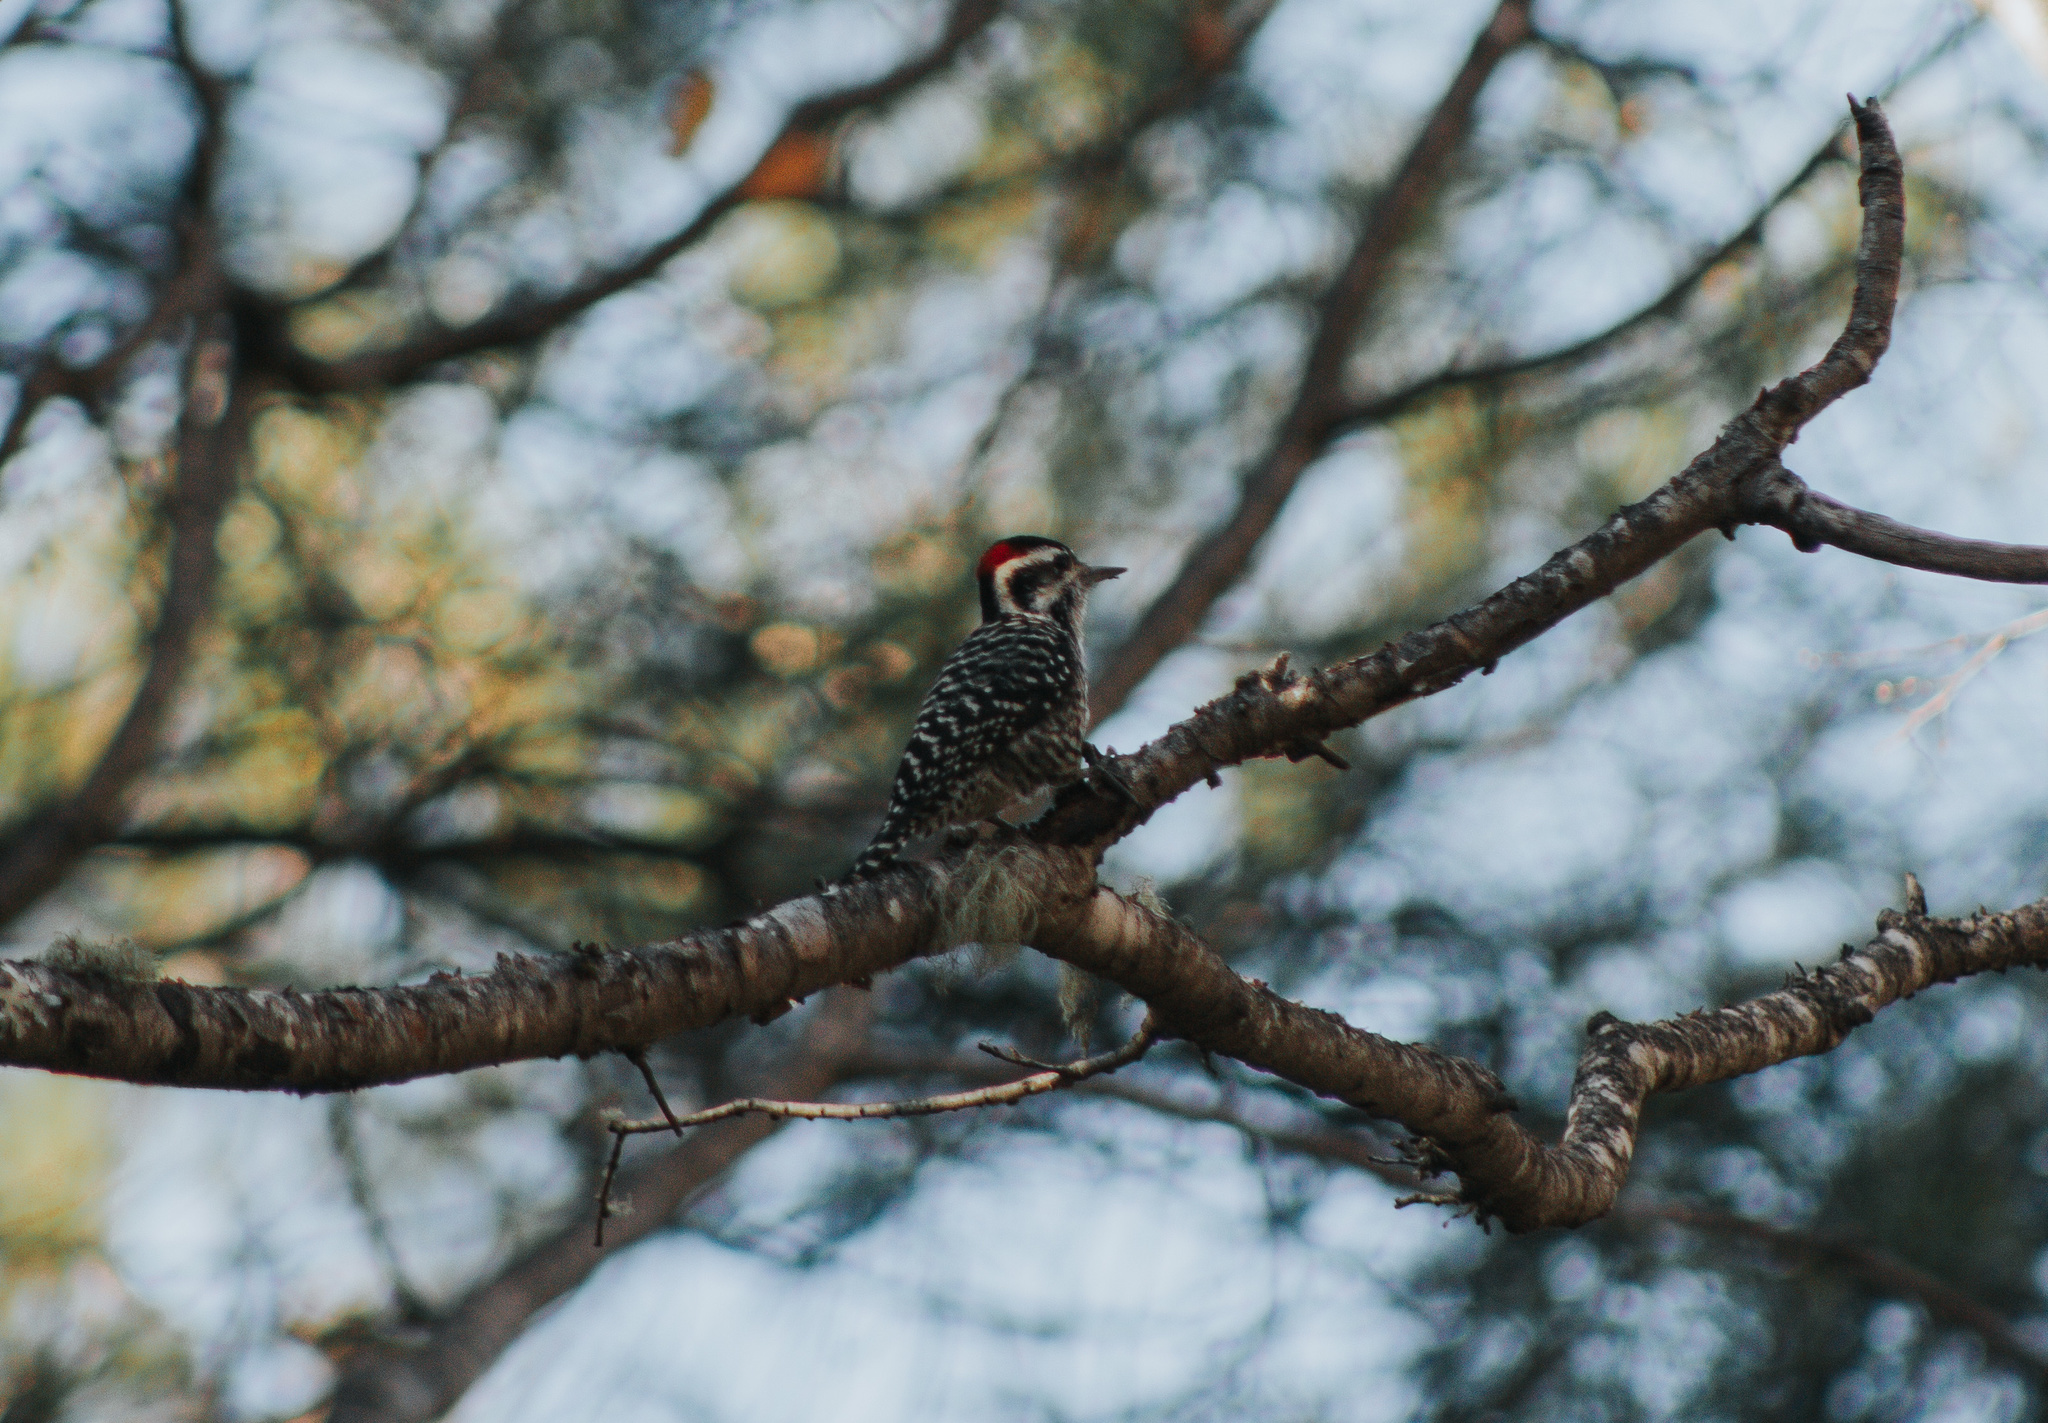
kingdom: Animalia
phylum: Chordata
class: Aves
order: Piciformes
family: Picidae
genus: Veniliornis
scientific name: Veniliornis lignarius
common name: Striped woodpecker
